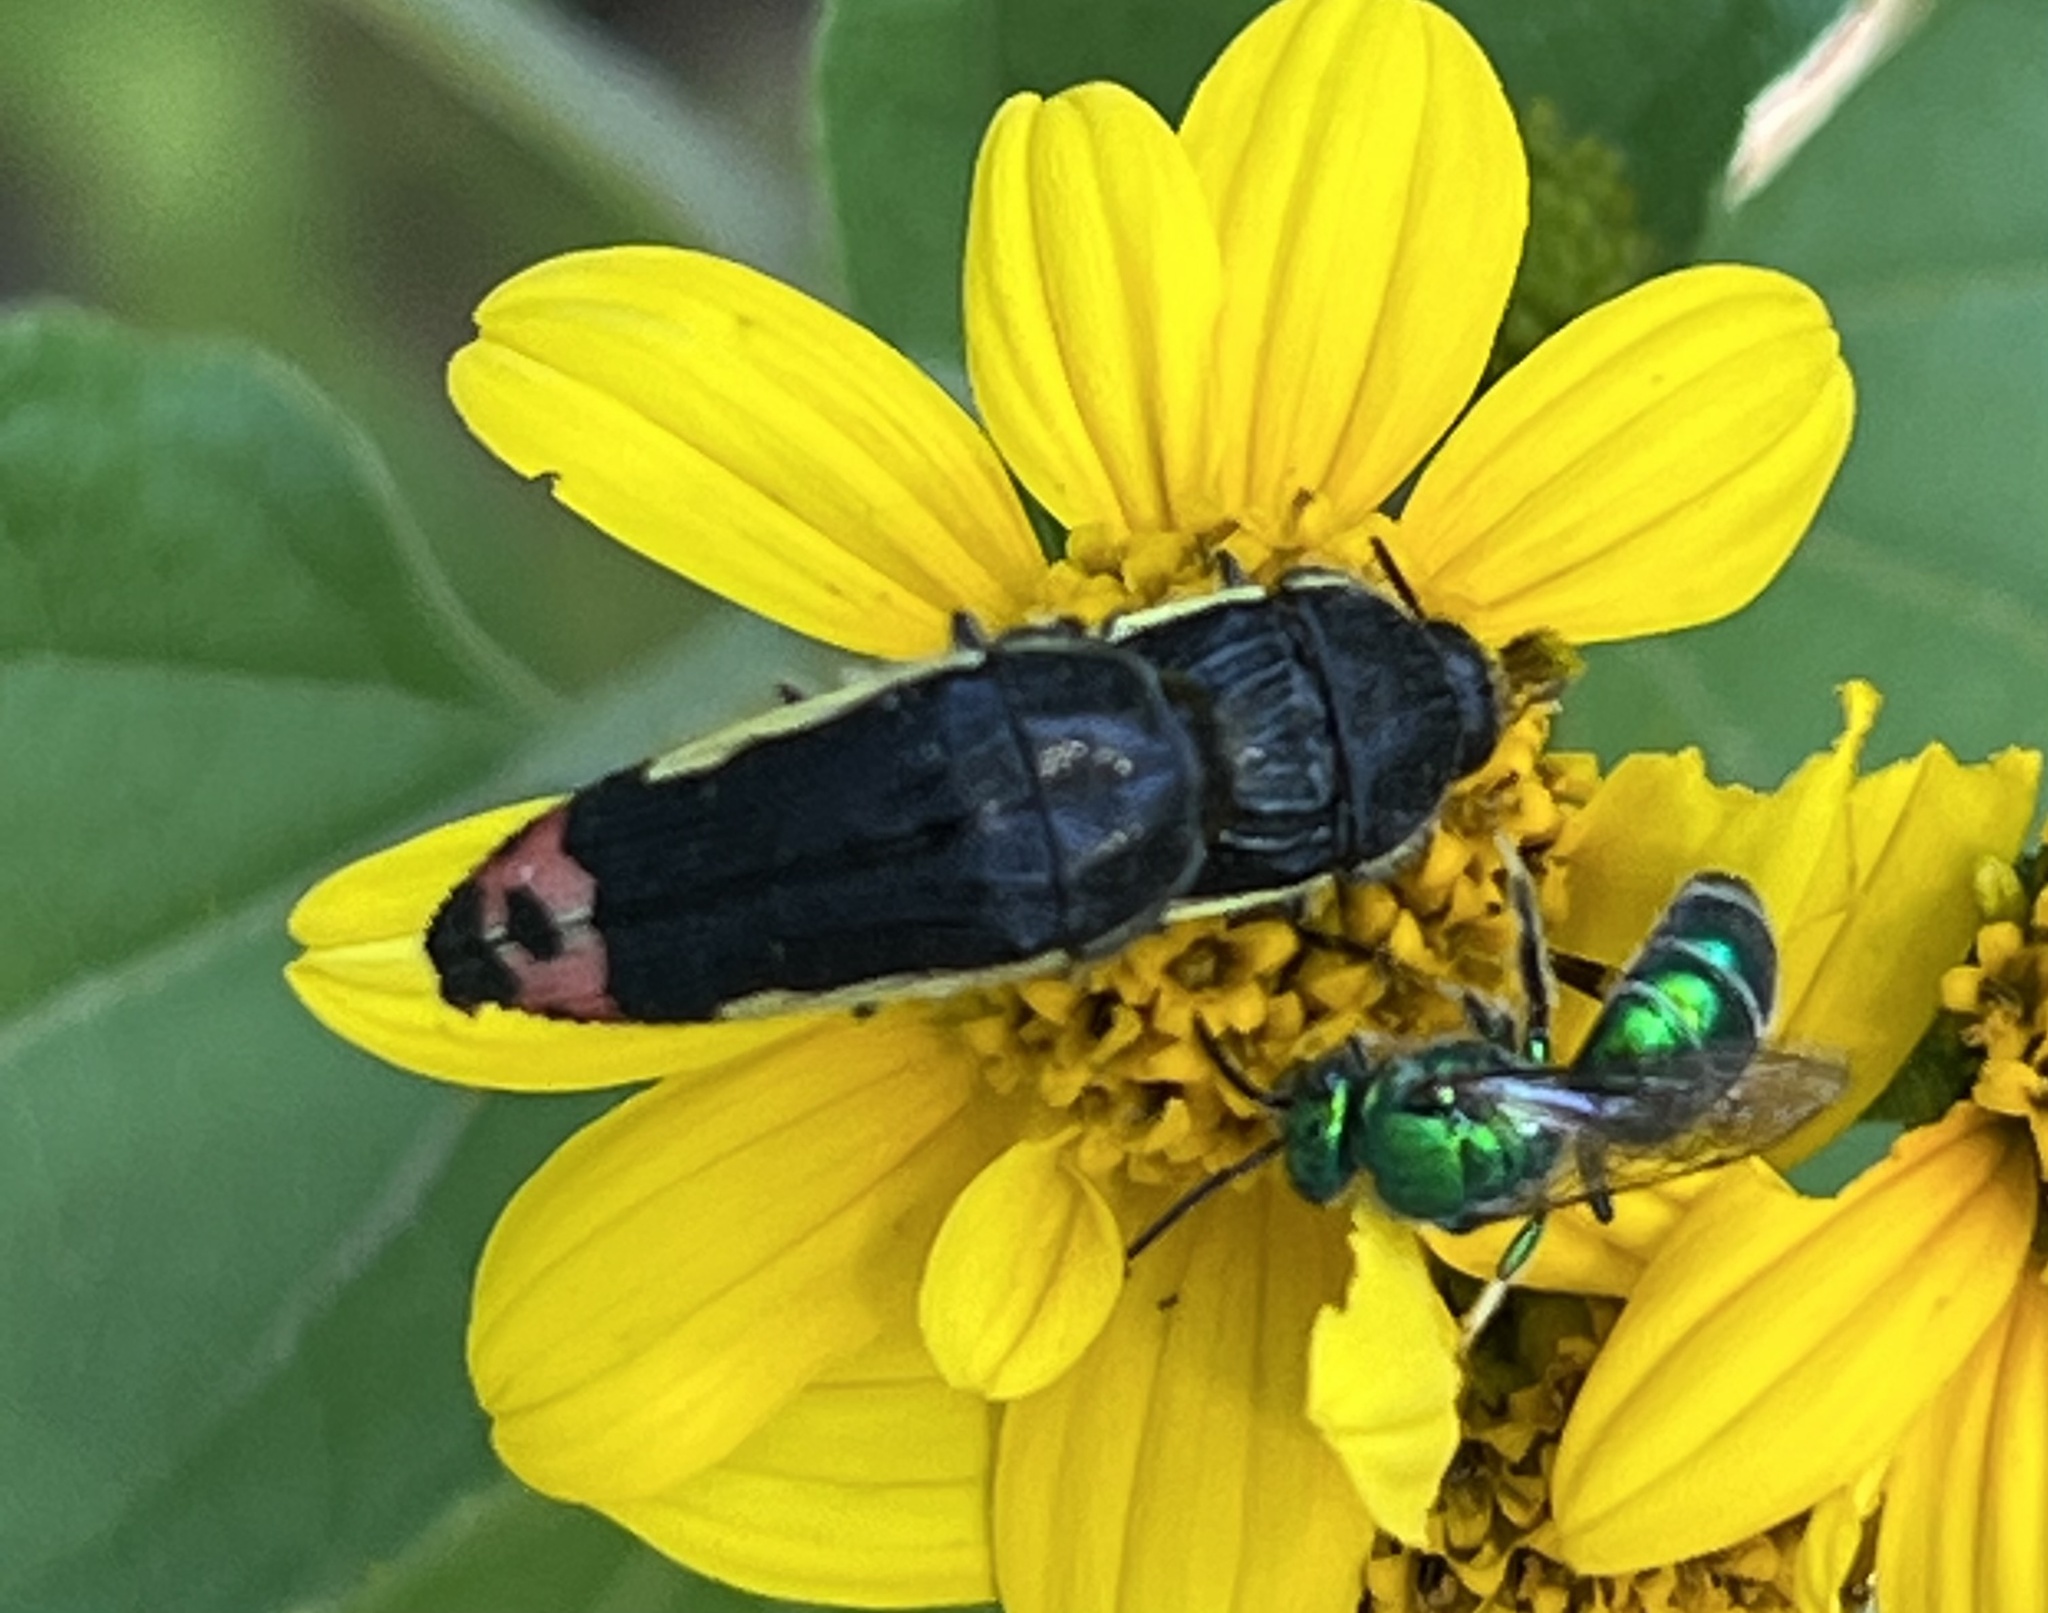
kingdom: Animalia
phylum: Arthropoda
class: Insecta
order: Coleoptera
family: Buprestidae
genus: Acmaeodera
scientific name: Acmaeodera flavomarginata
